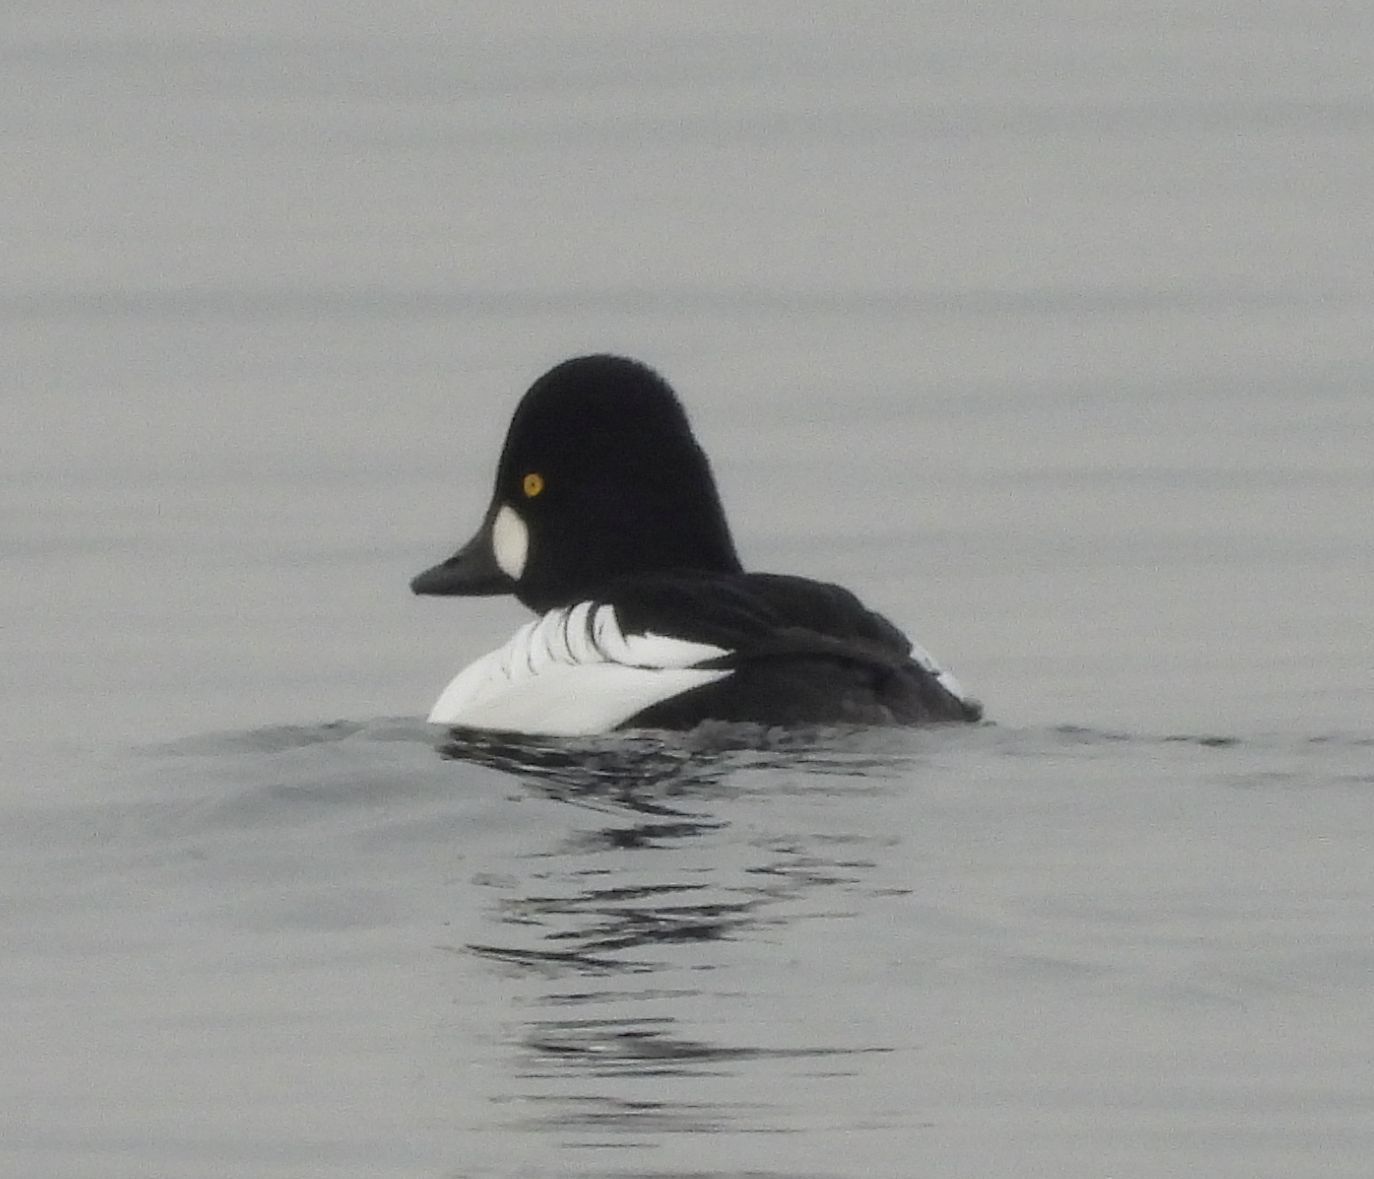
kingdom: Animalia
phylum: Chordata
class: Aves
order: Anseriformes
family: Anatidae
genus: Bucephala
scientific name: Bucephala clangula
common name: Common goldeneye
